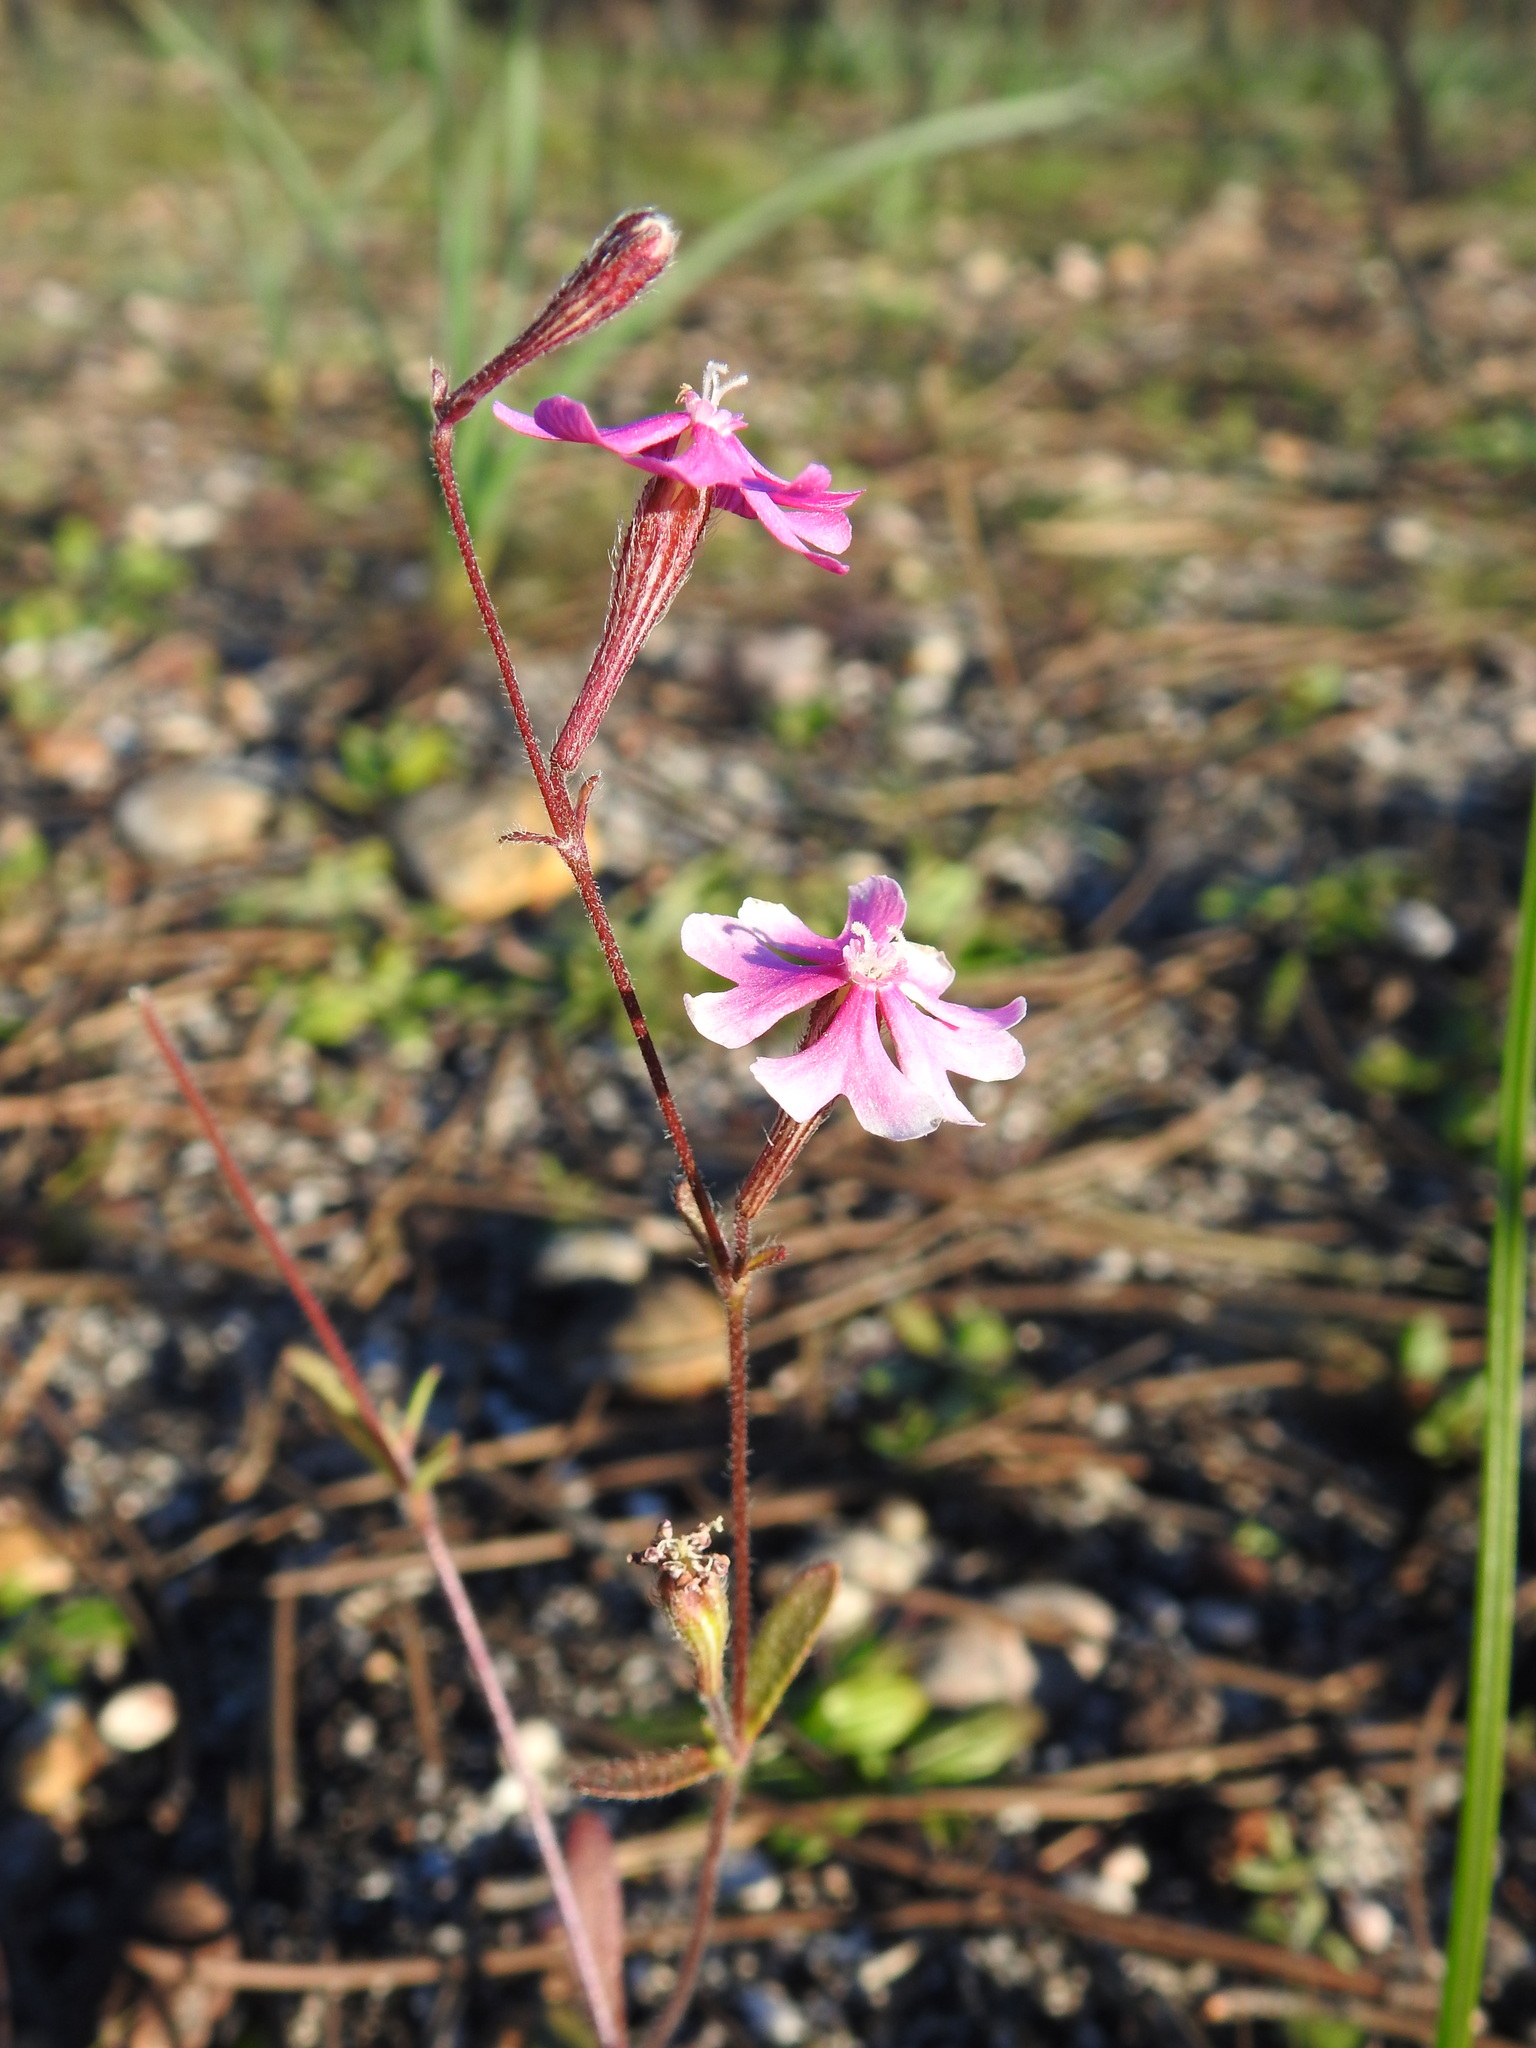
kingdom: Plantae
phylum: Tracheophyta
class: Magnoliopsida
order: Caryophyllales
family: Caryophyllaceae
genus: Silene
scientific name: Silene scabriflora
